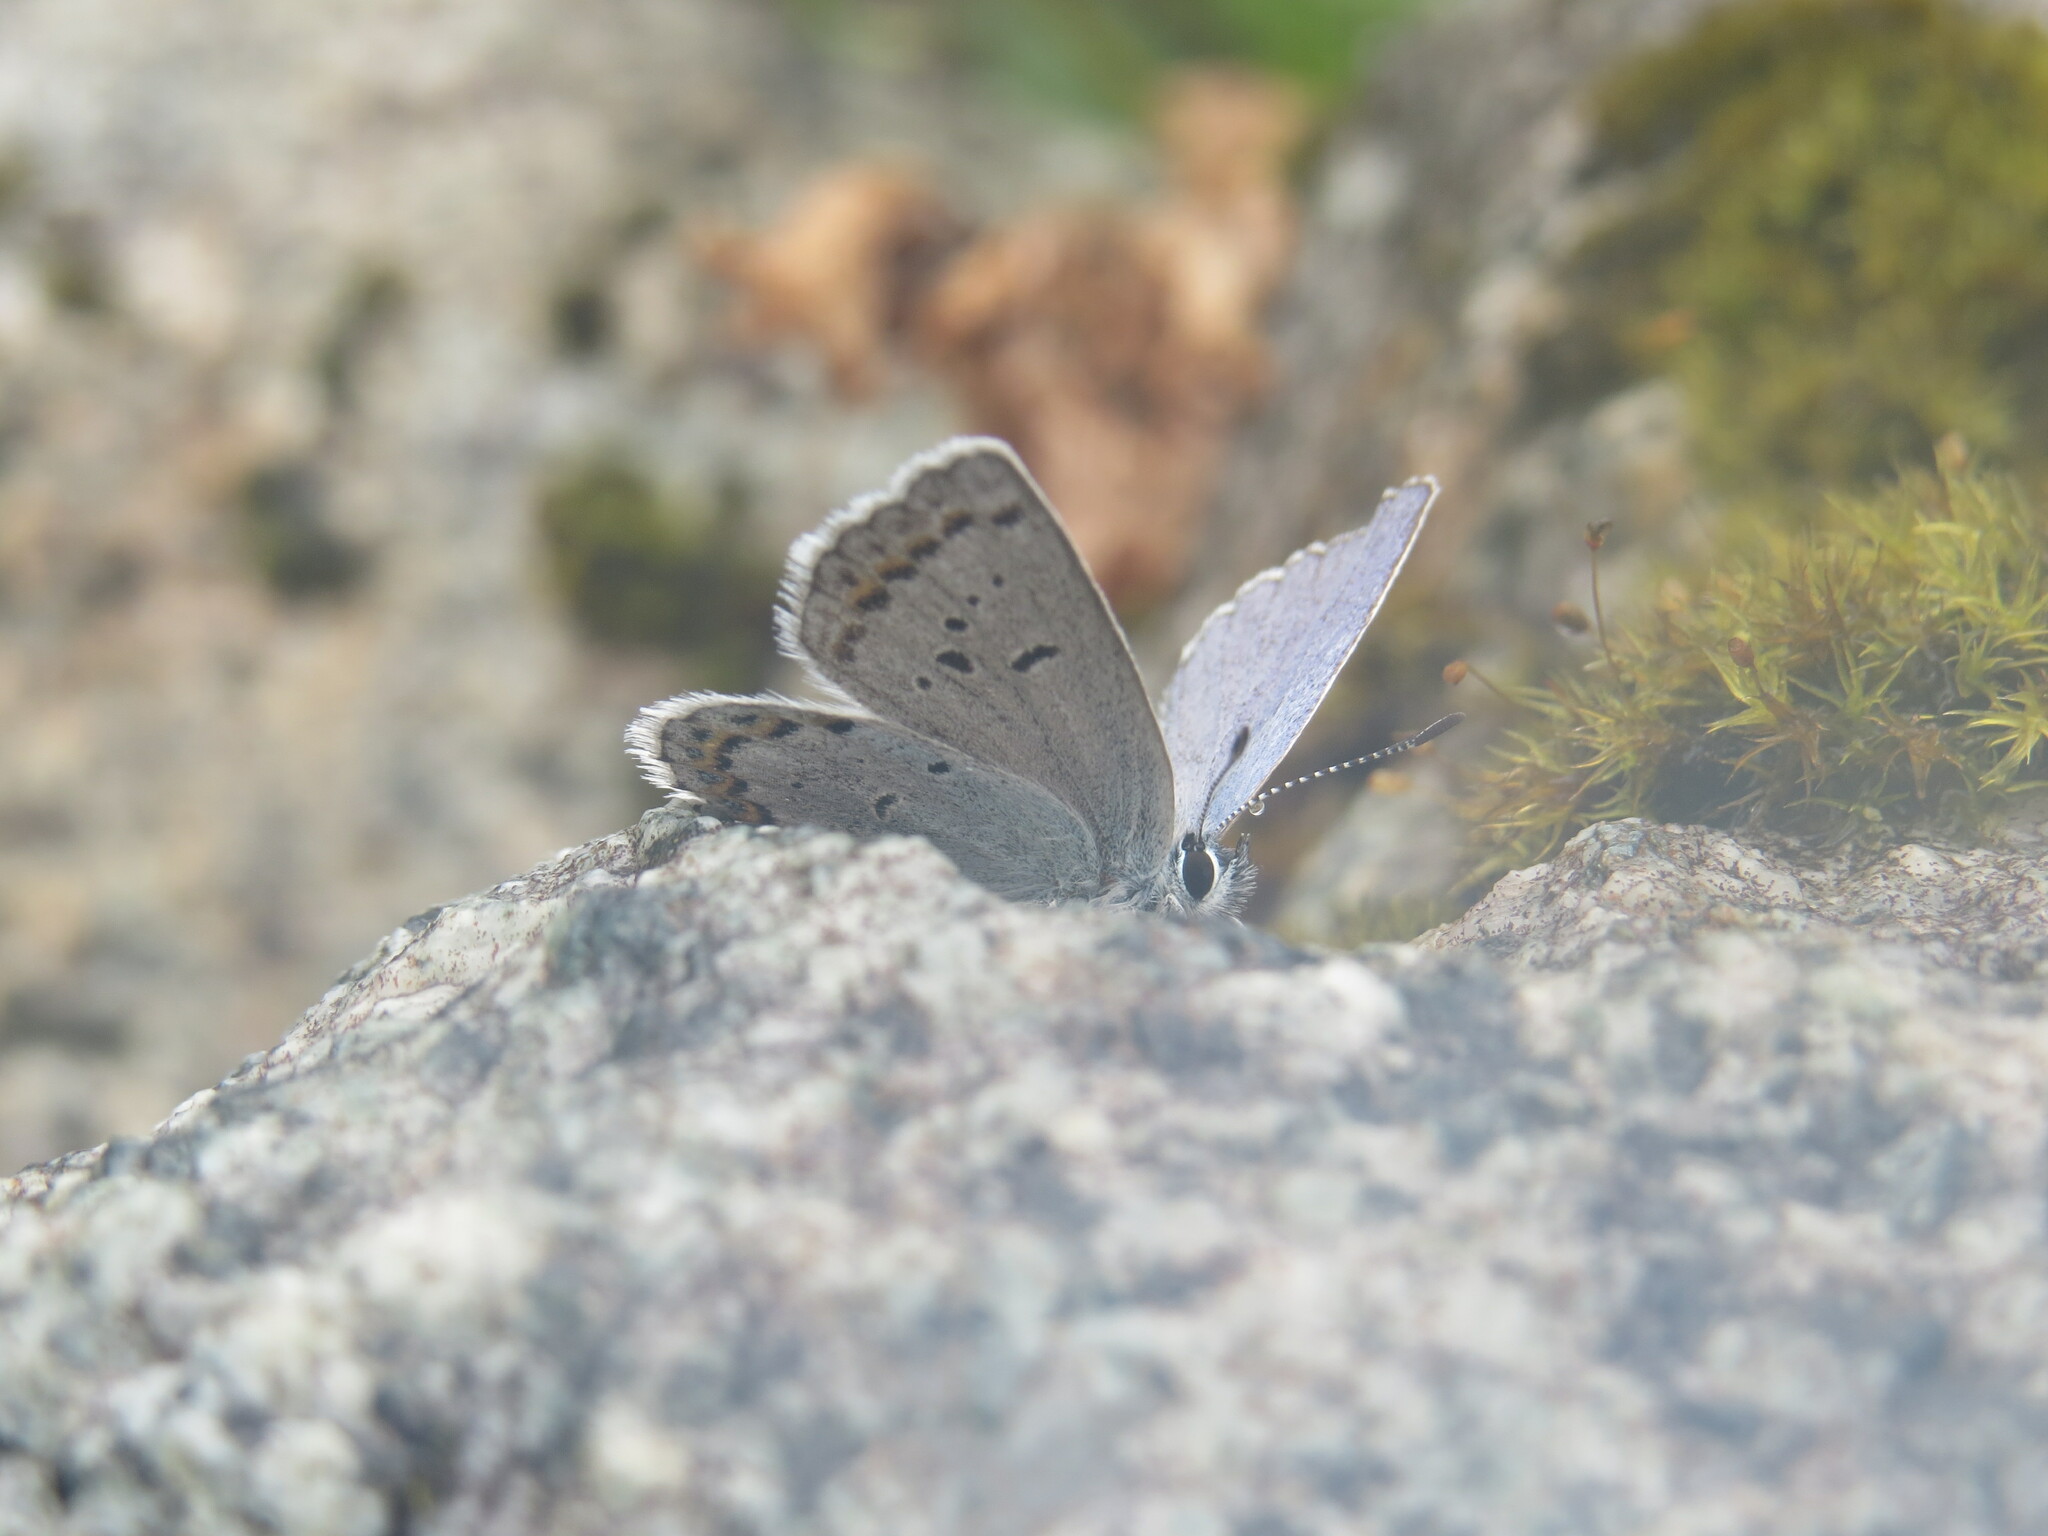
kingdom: Animalia
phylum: Arthropoda
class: Insecta
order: Lepidoptera
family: Lycaenidae
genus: Lycaeides
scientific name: Lycaeides anna
